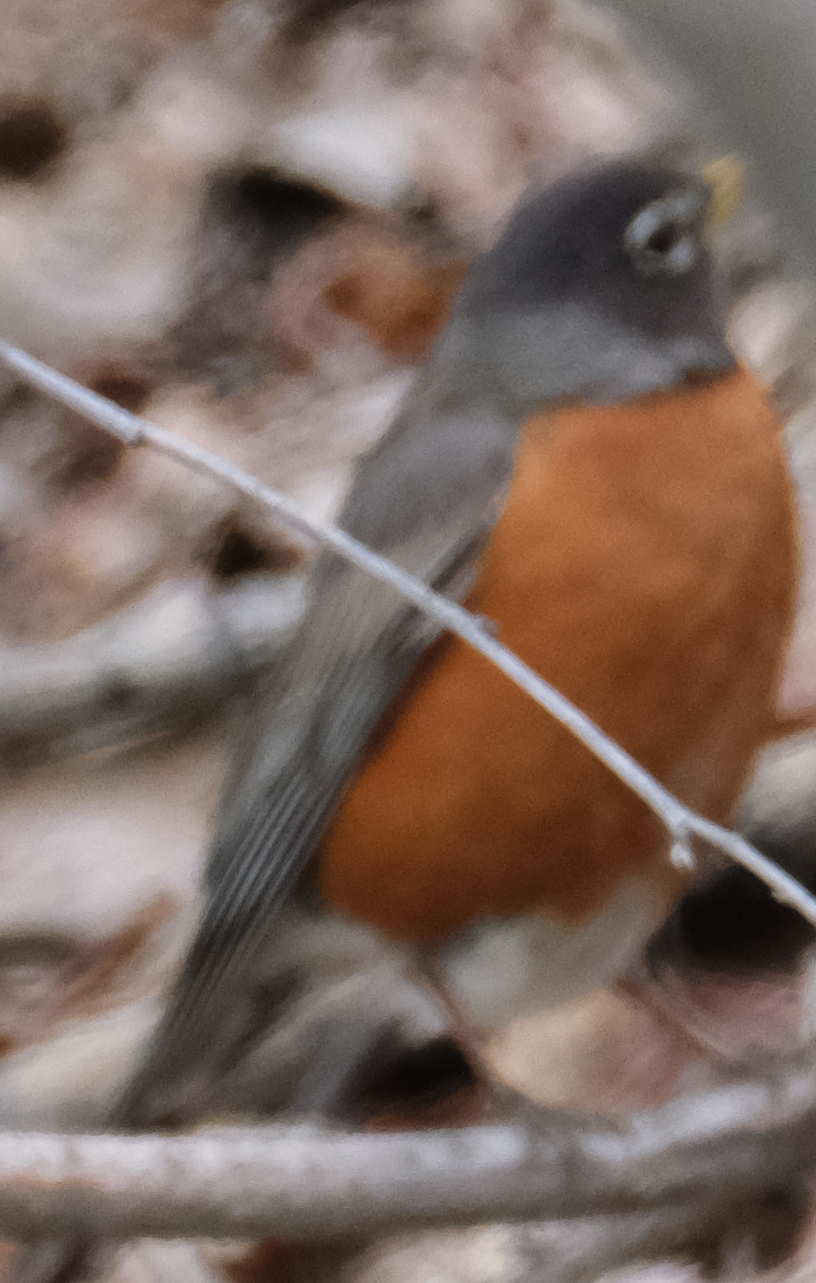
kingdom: Animalia
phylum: Chordata
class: Aves
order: Passeriformes
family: Turdidae
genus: Turdus
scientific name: Turdus migratorius
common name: American robin
